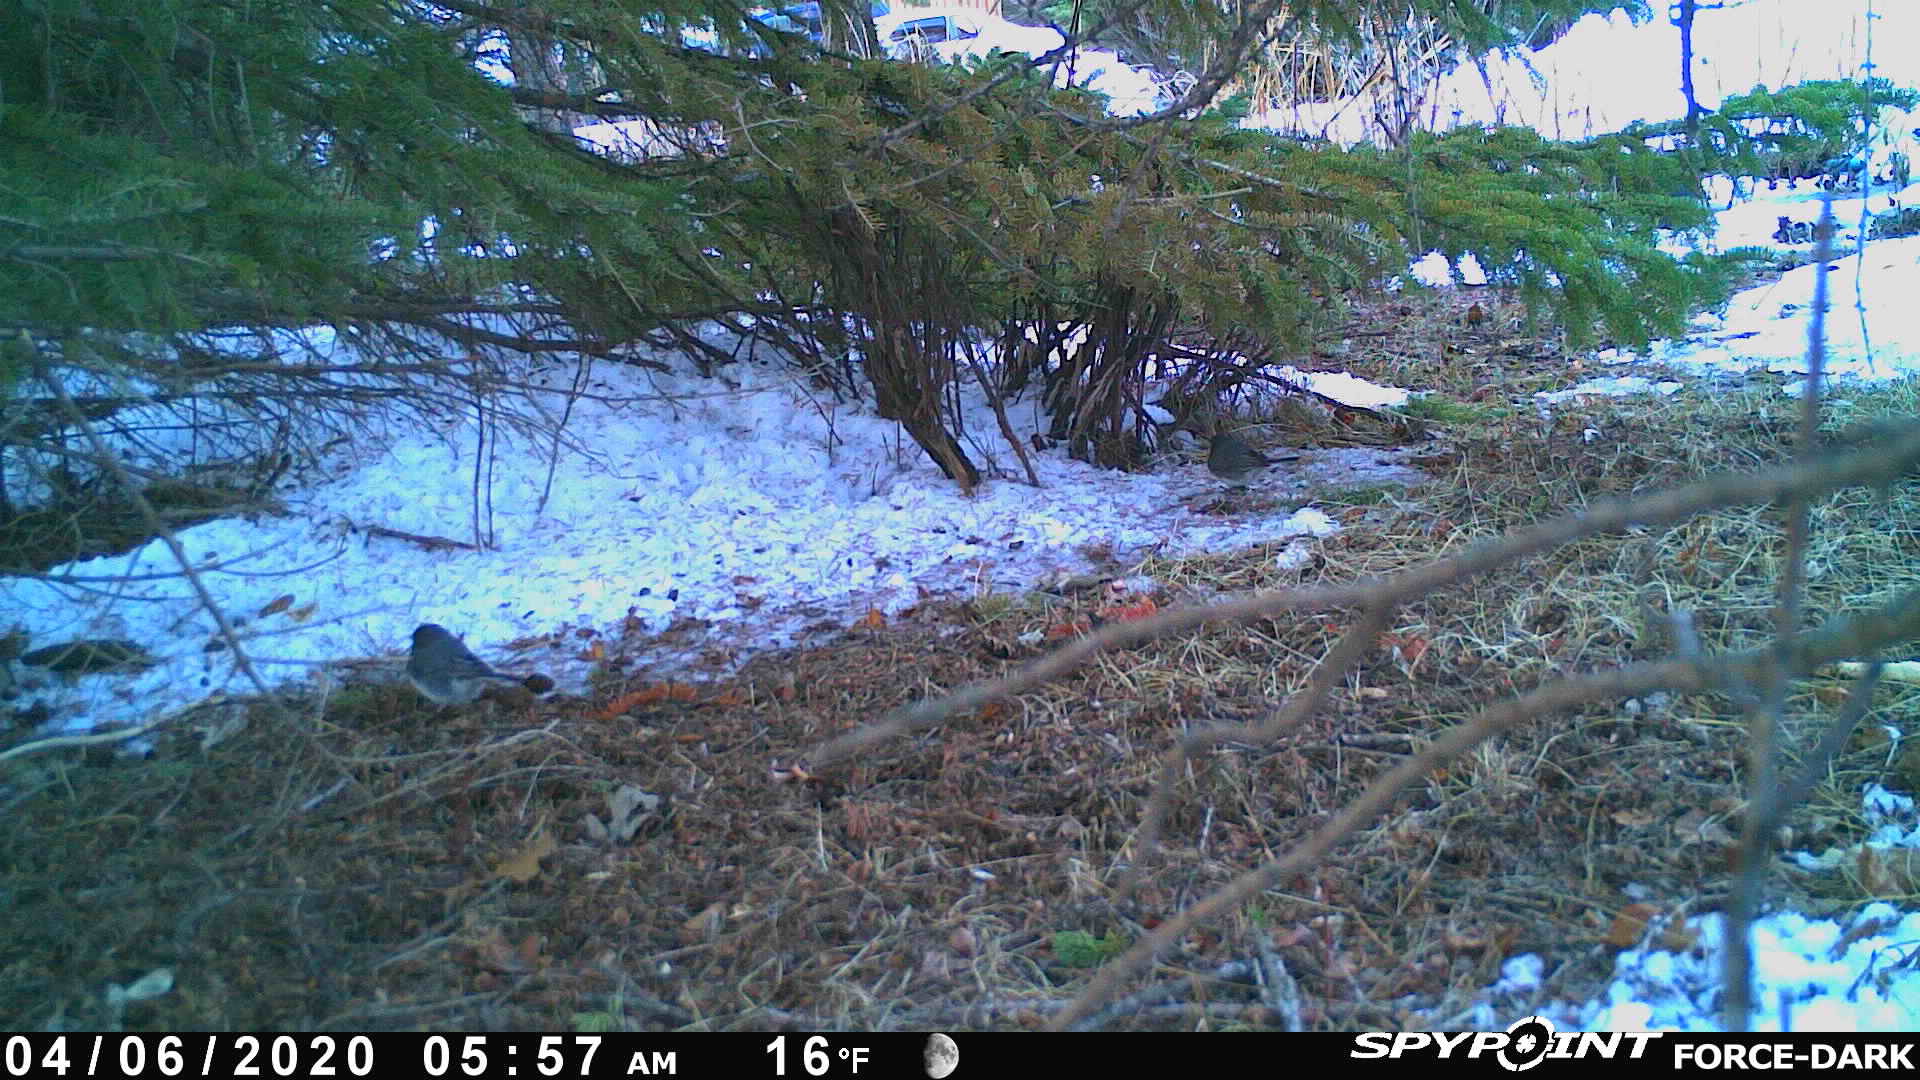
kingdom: Animalia
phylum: Chordata
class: Aves
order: Passeriformes
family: Passerellidae
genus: Junco
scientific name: Junco hyemalis
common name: Dark-eyed junco
